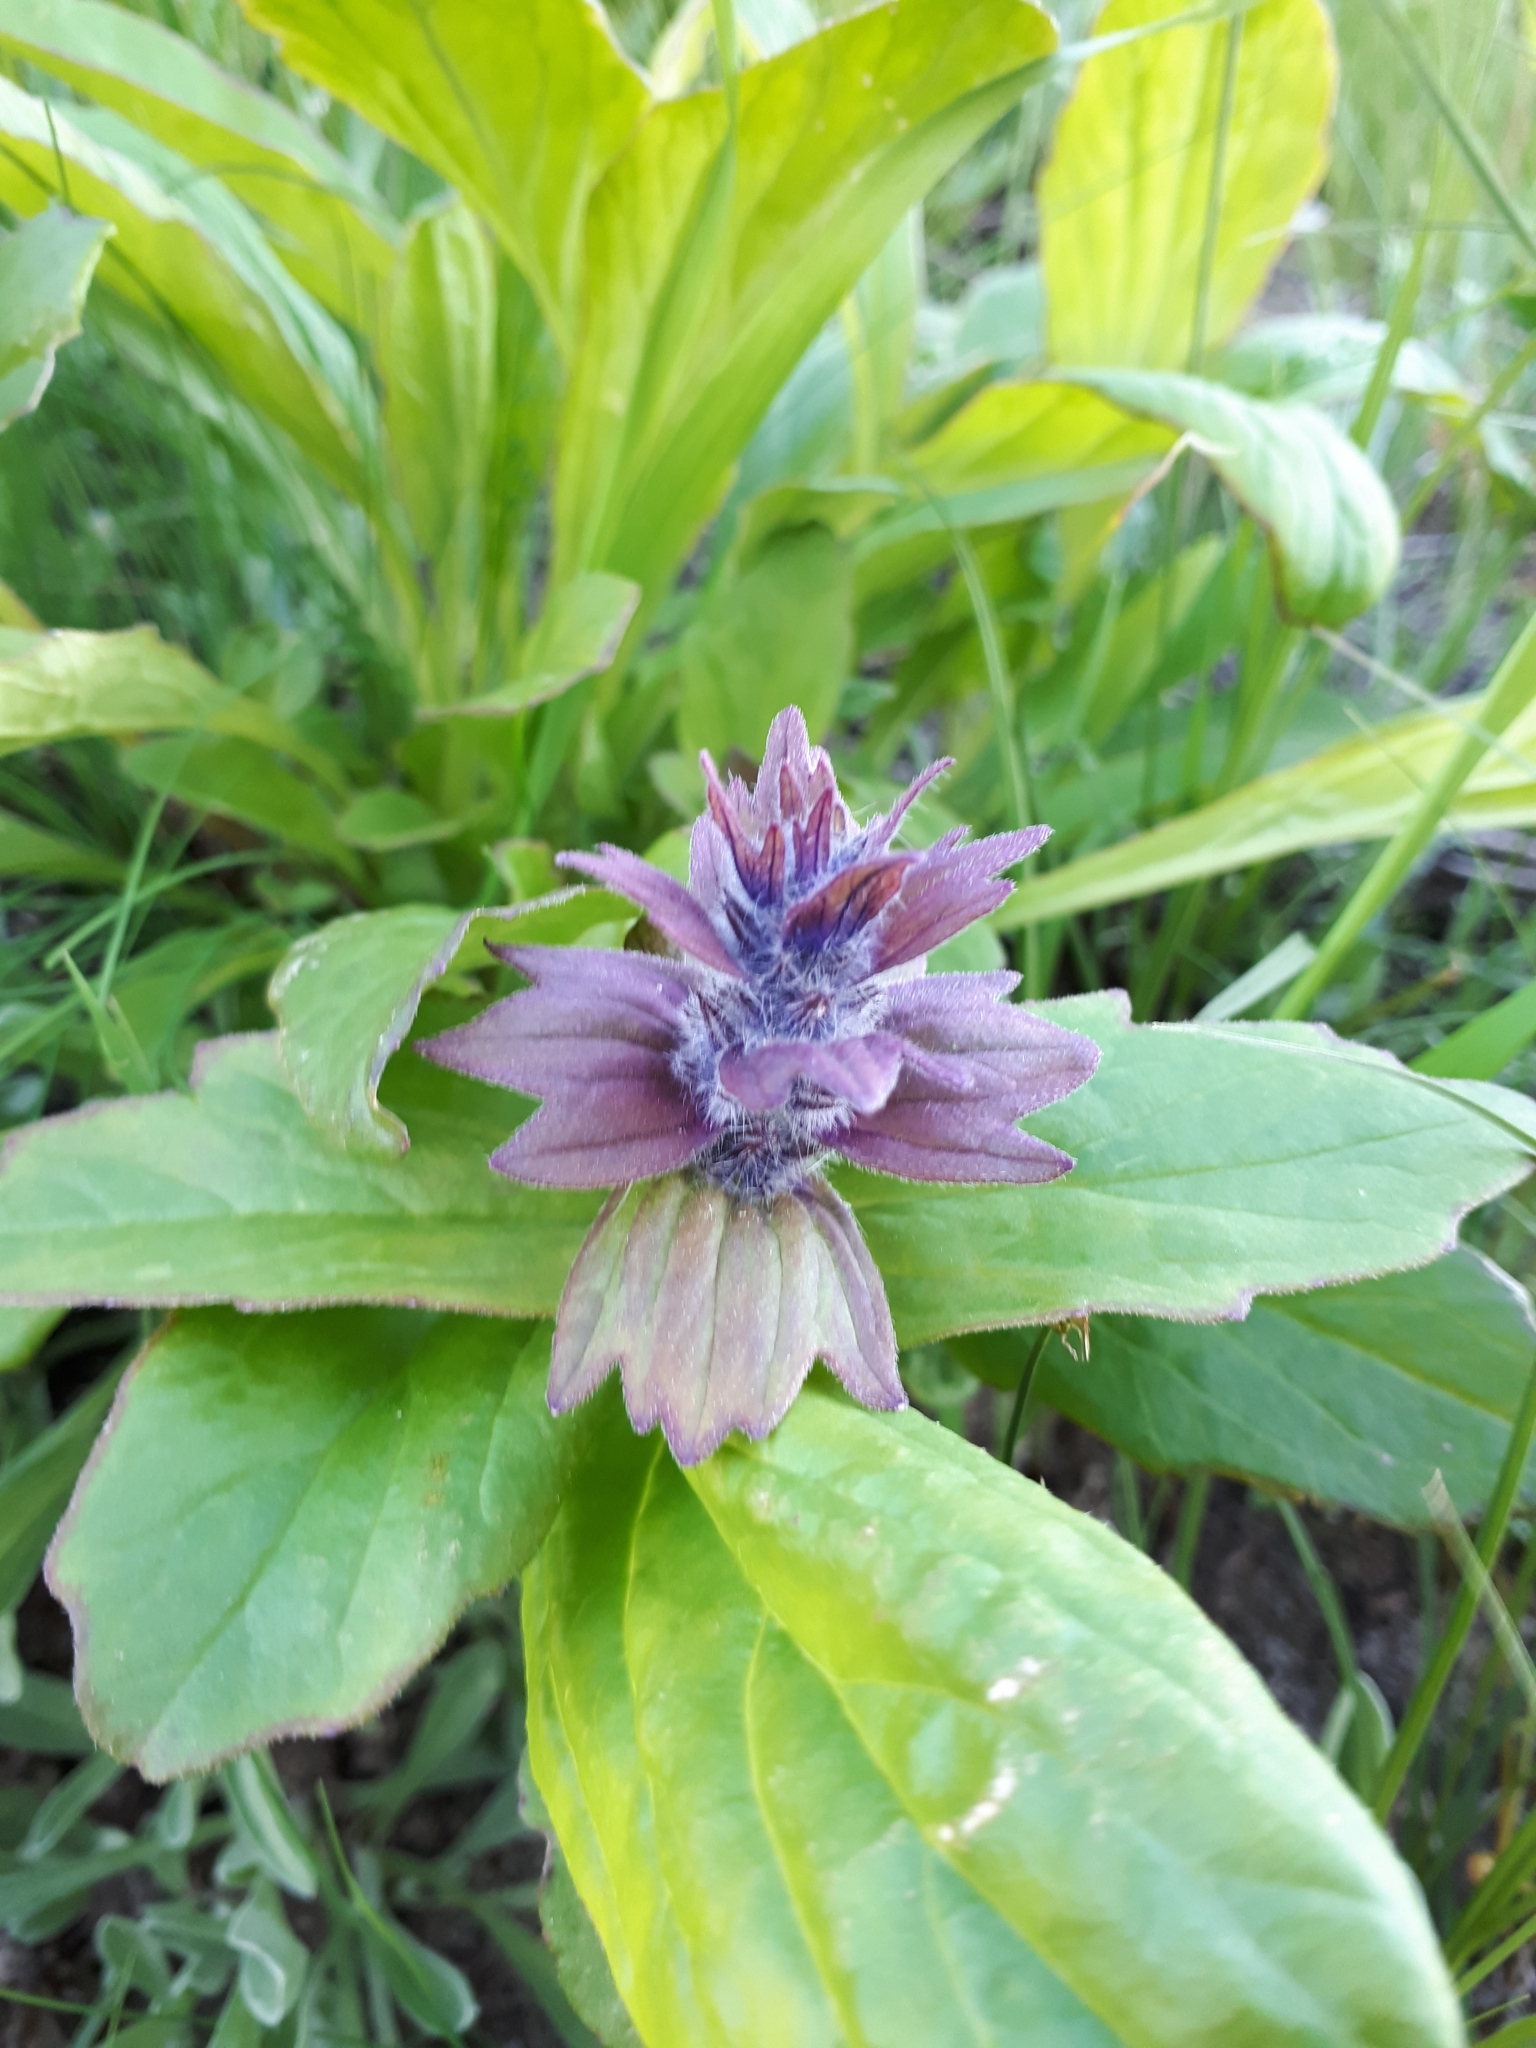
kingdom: Plantae
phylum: Tracheophyta
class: Magnoliopsida
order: Lamiales
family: Lamiaceae
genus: Ajuga
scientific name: Ajuga genevensis
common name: Blue bugle
